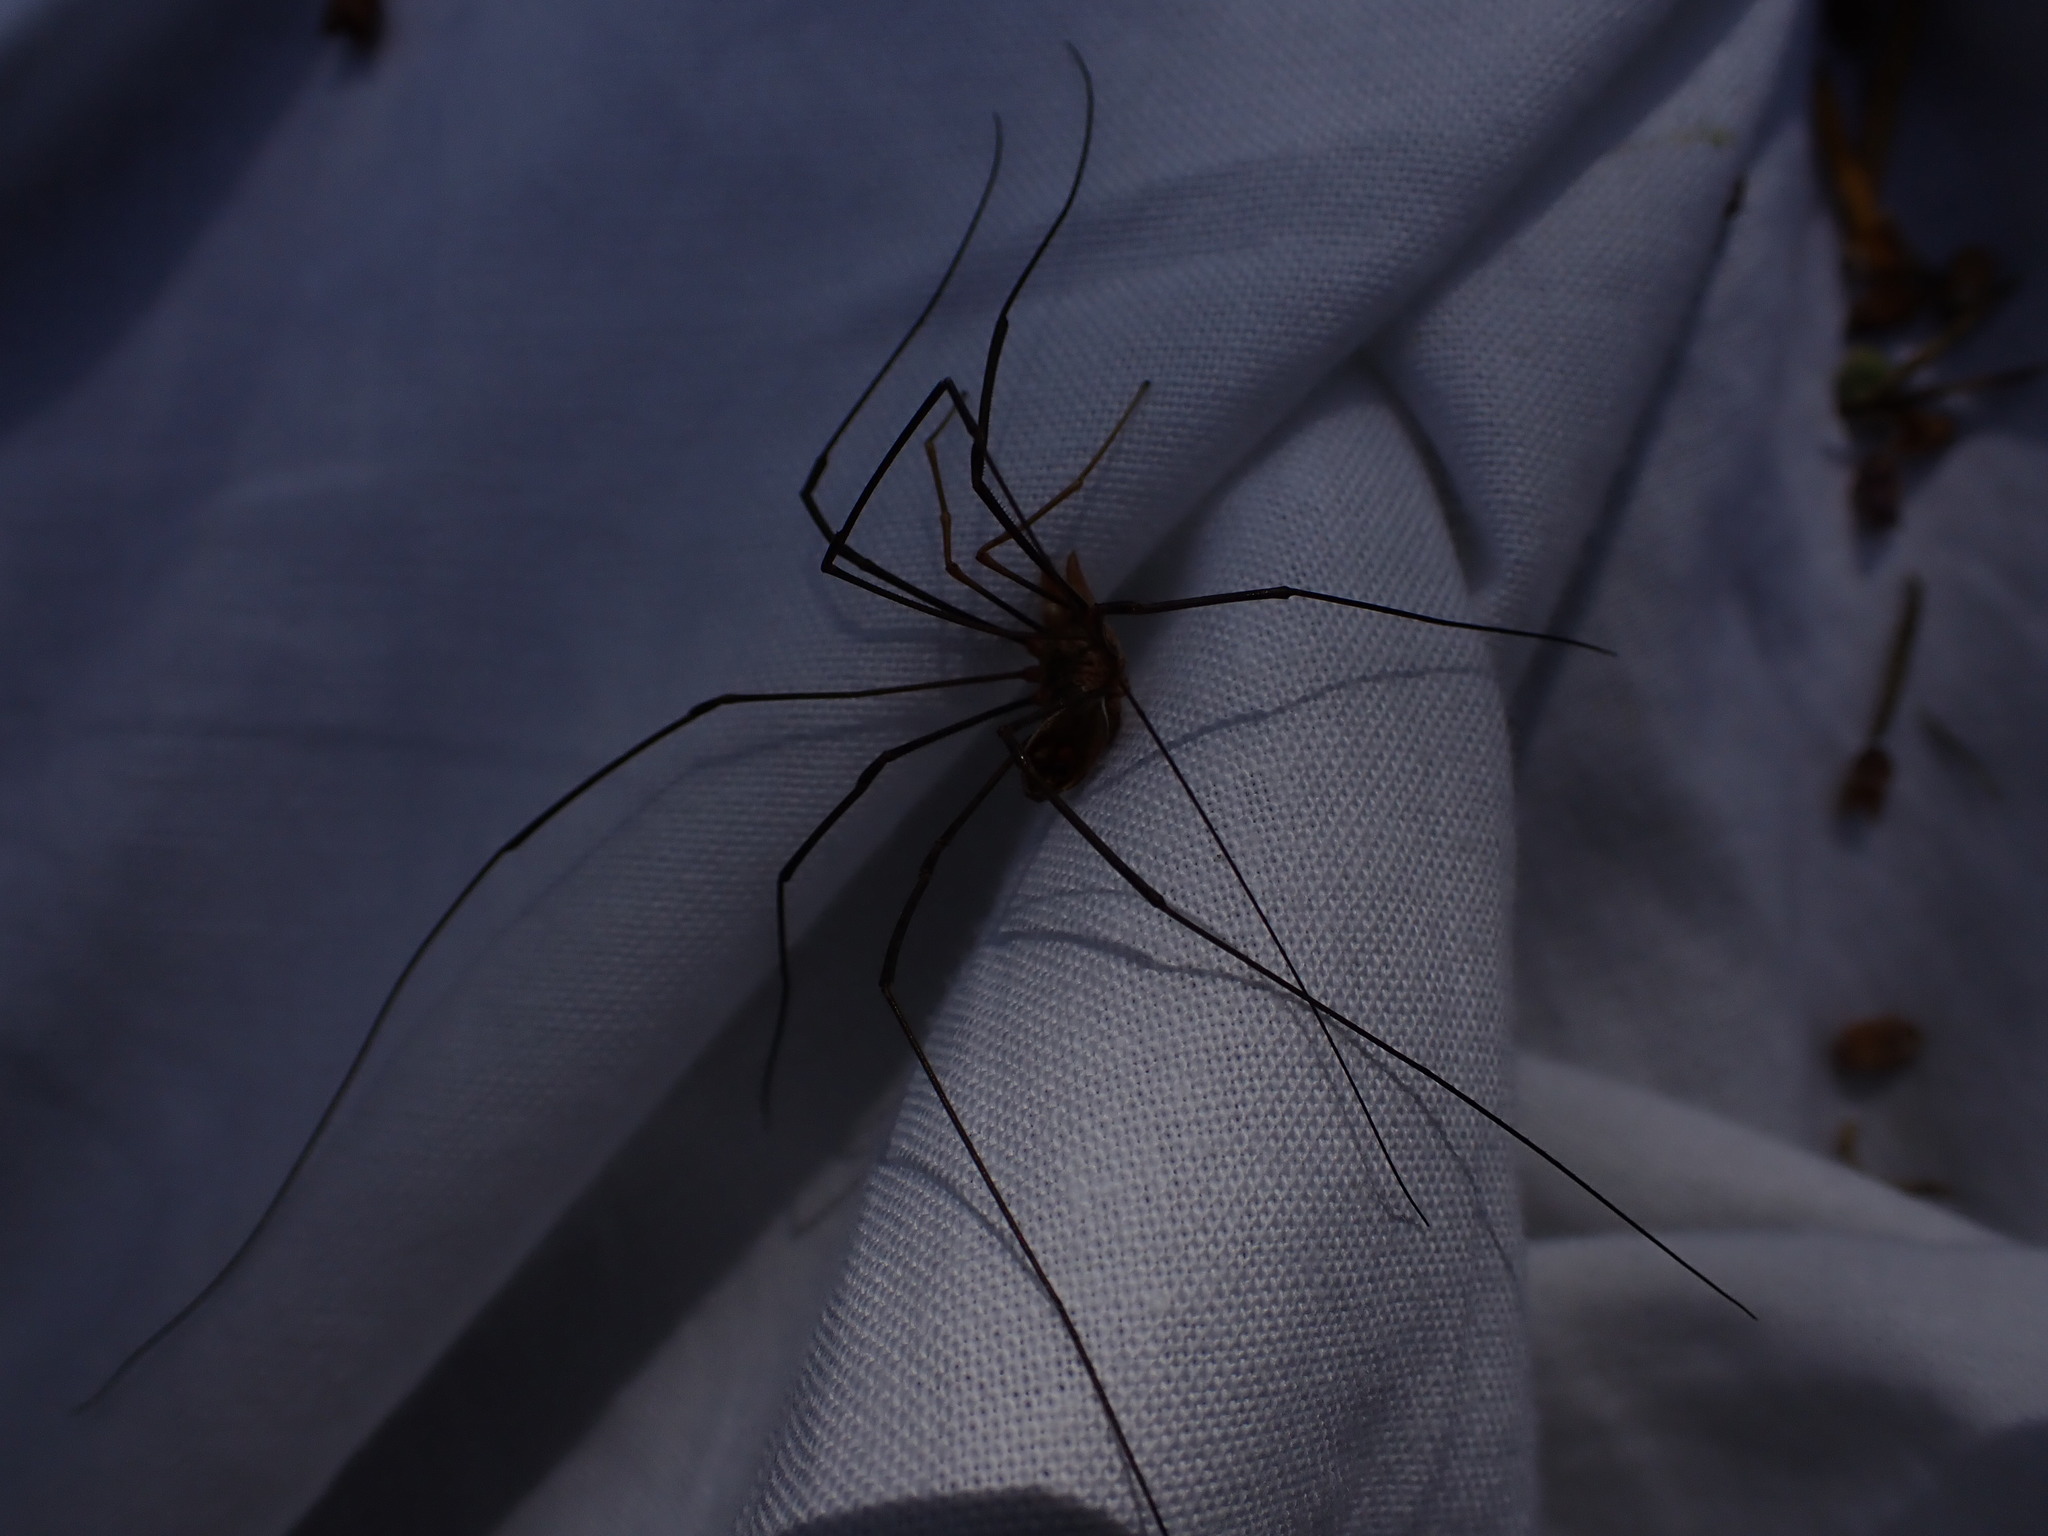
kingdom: Animalia
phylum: Arthropoda
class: Arachnida
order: Opiliones
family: Phalangiidae
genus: Phalangium
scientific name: Phalangium opilio
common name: Daddy longleg
